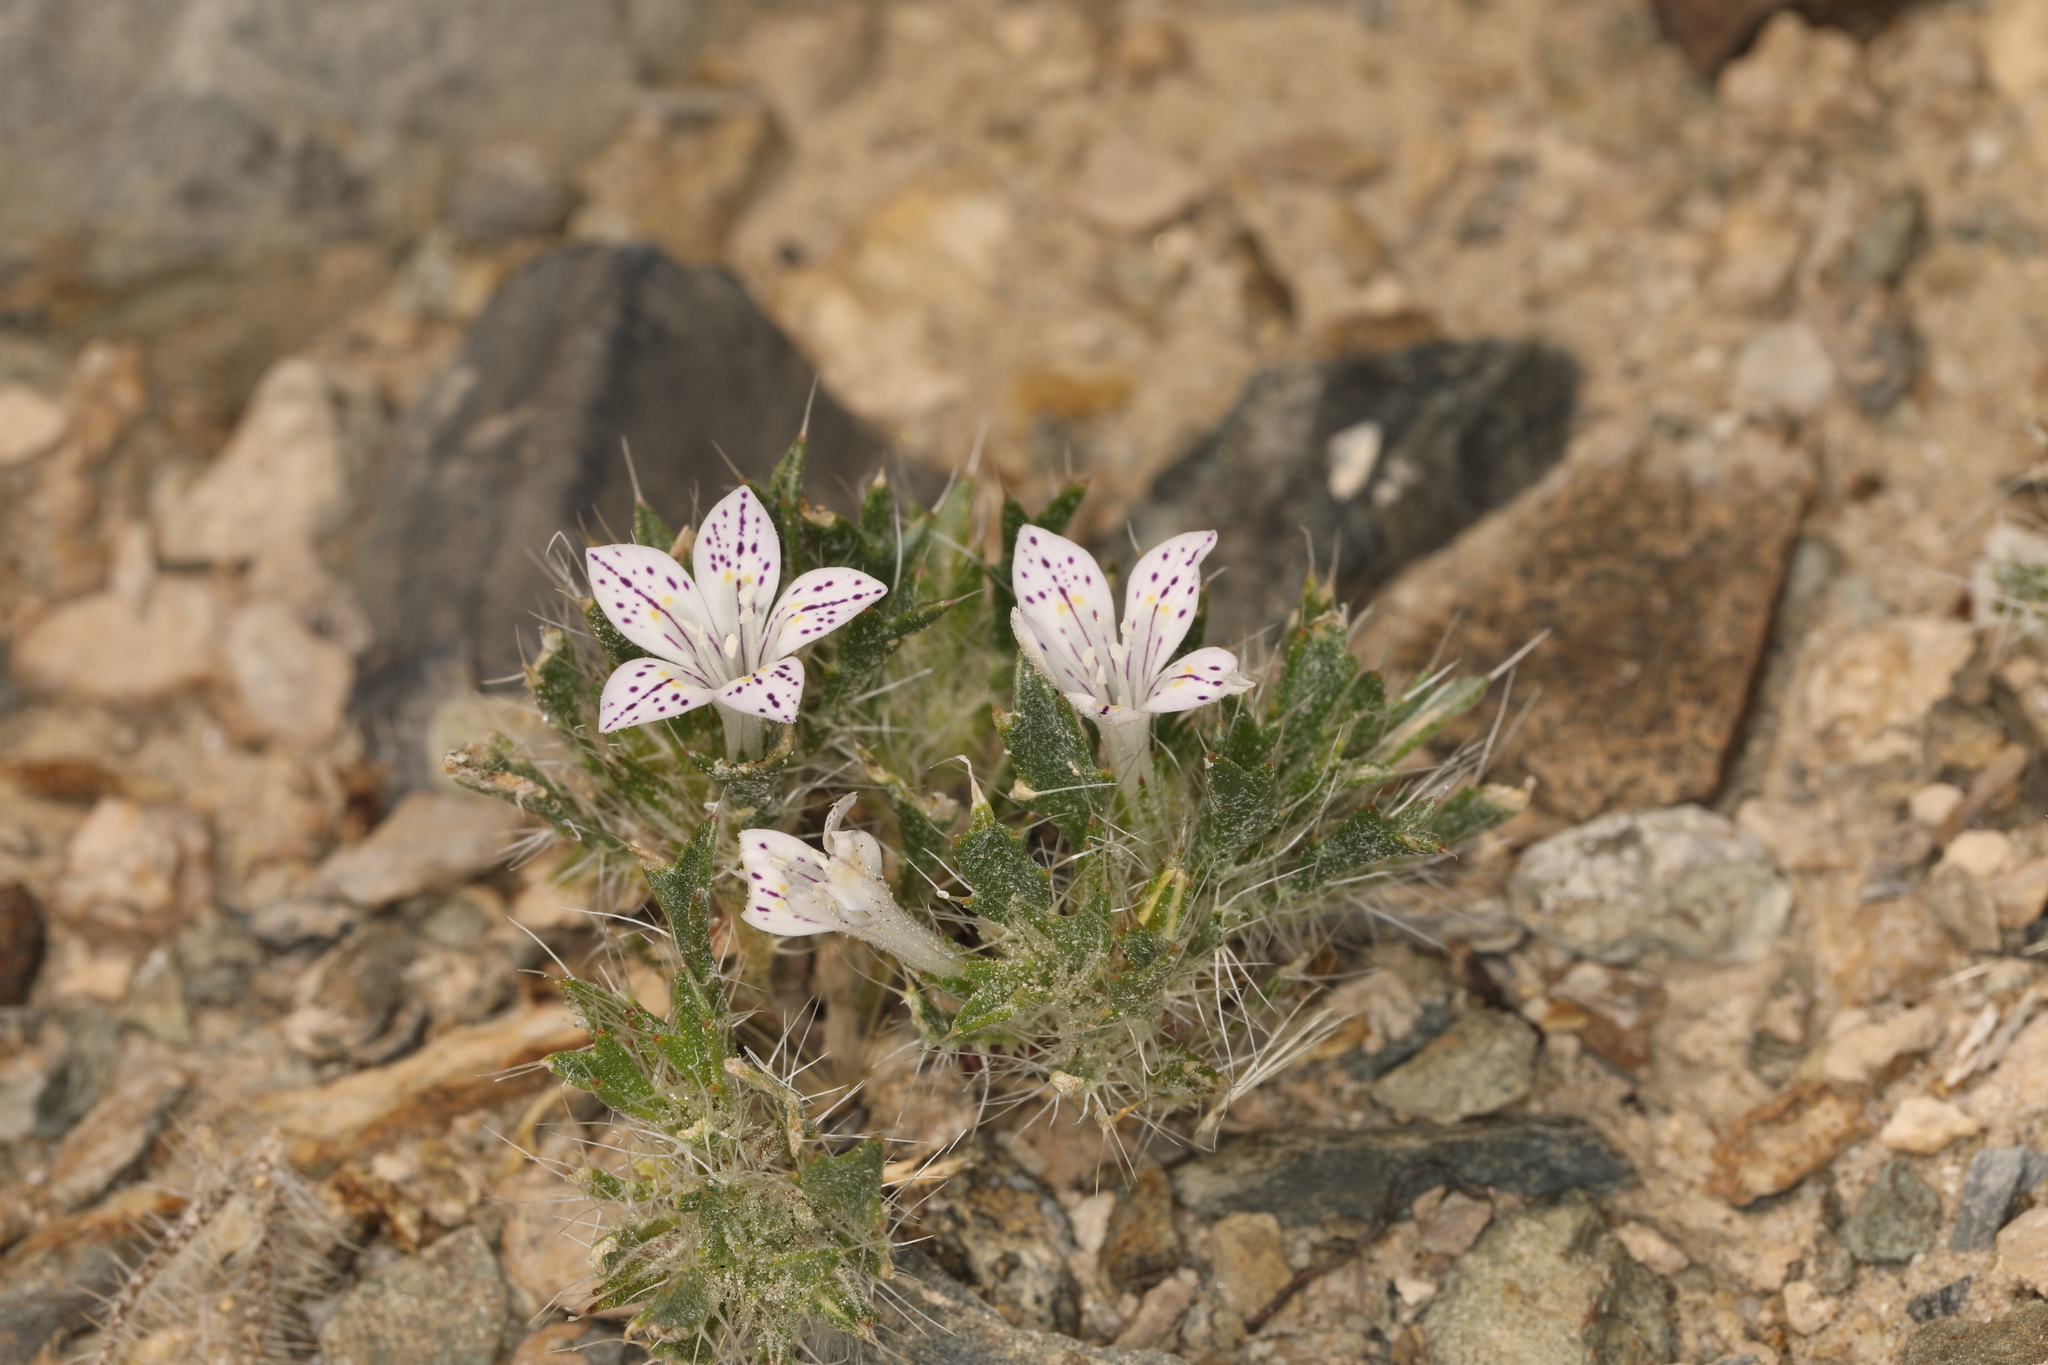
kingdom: Plantae
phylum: Tracheophyta
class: Magnoliopsida
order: Ericales
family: Polemoniaceae
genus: Langloisia
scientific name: Langloisia setosissima
